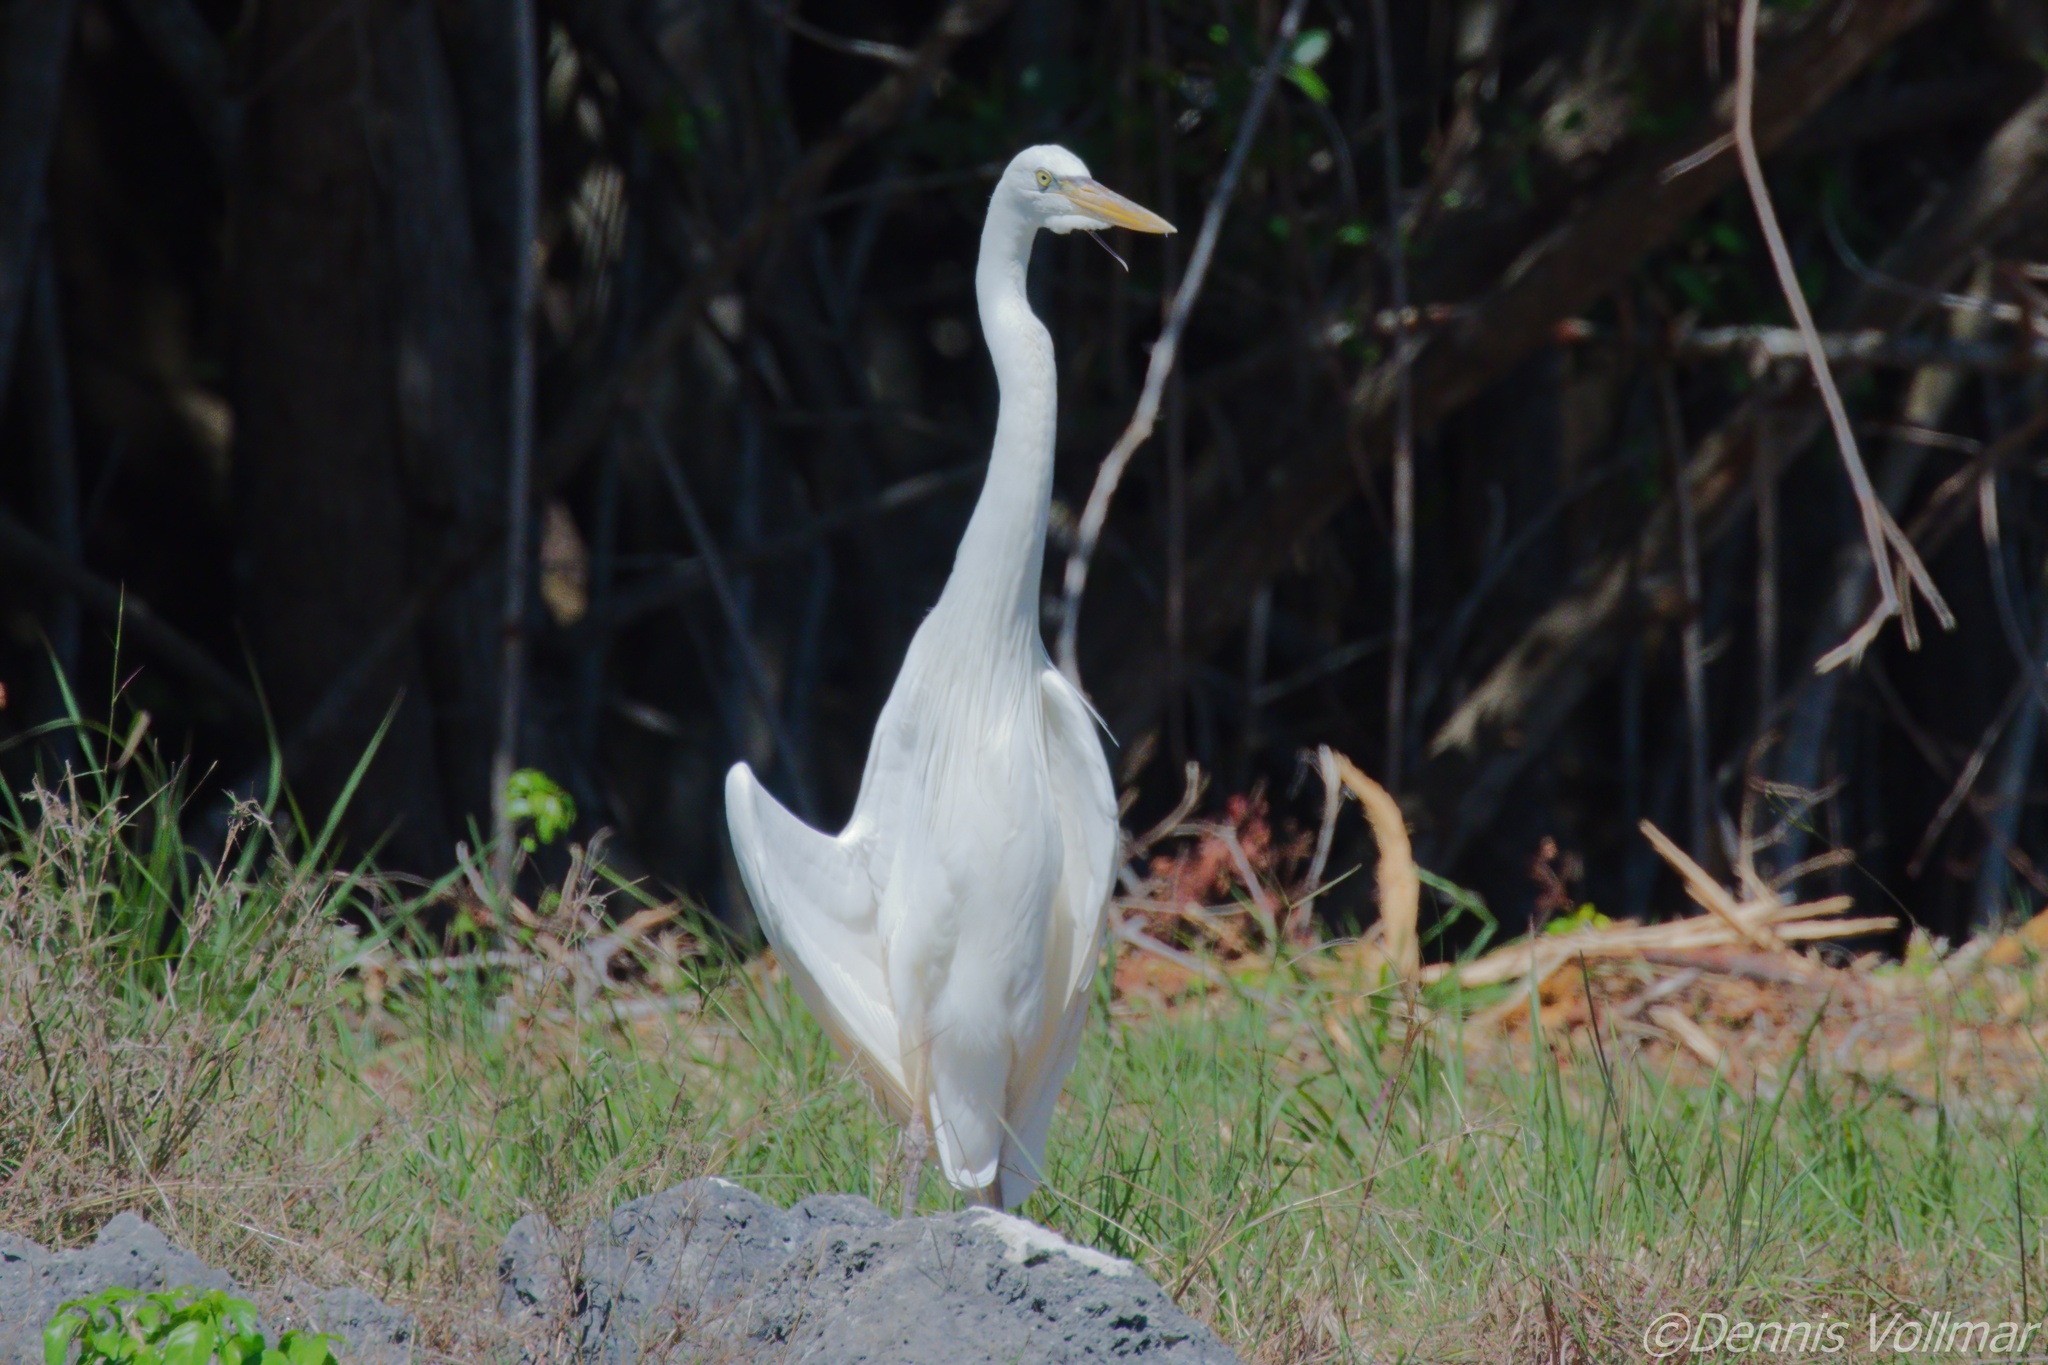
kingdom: Animalia
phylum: Chordata
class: Aves
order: Pelecaniformes
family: Ardeidae
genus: Ardea
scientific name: Ardea herodias
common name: Great blue heron
